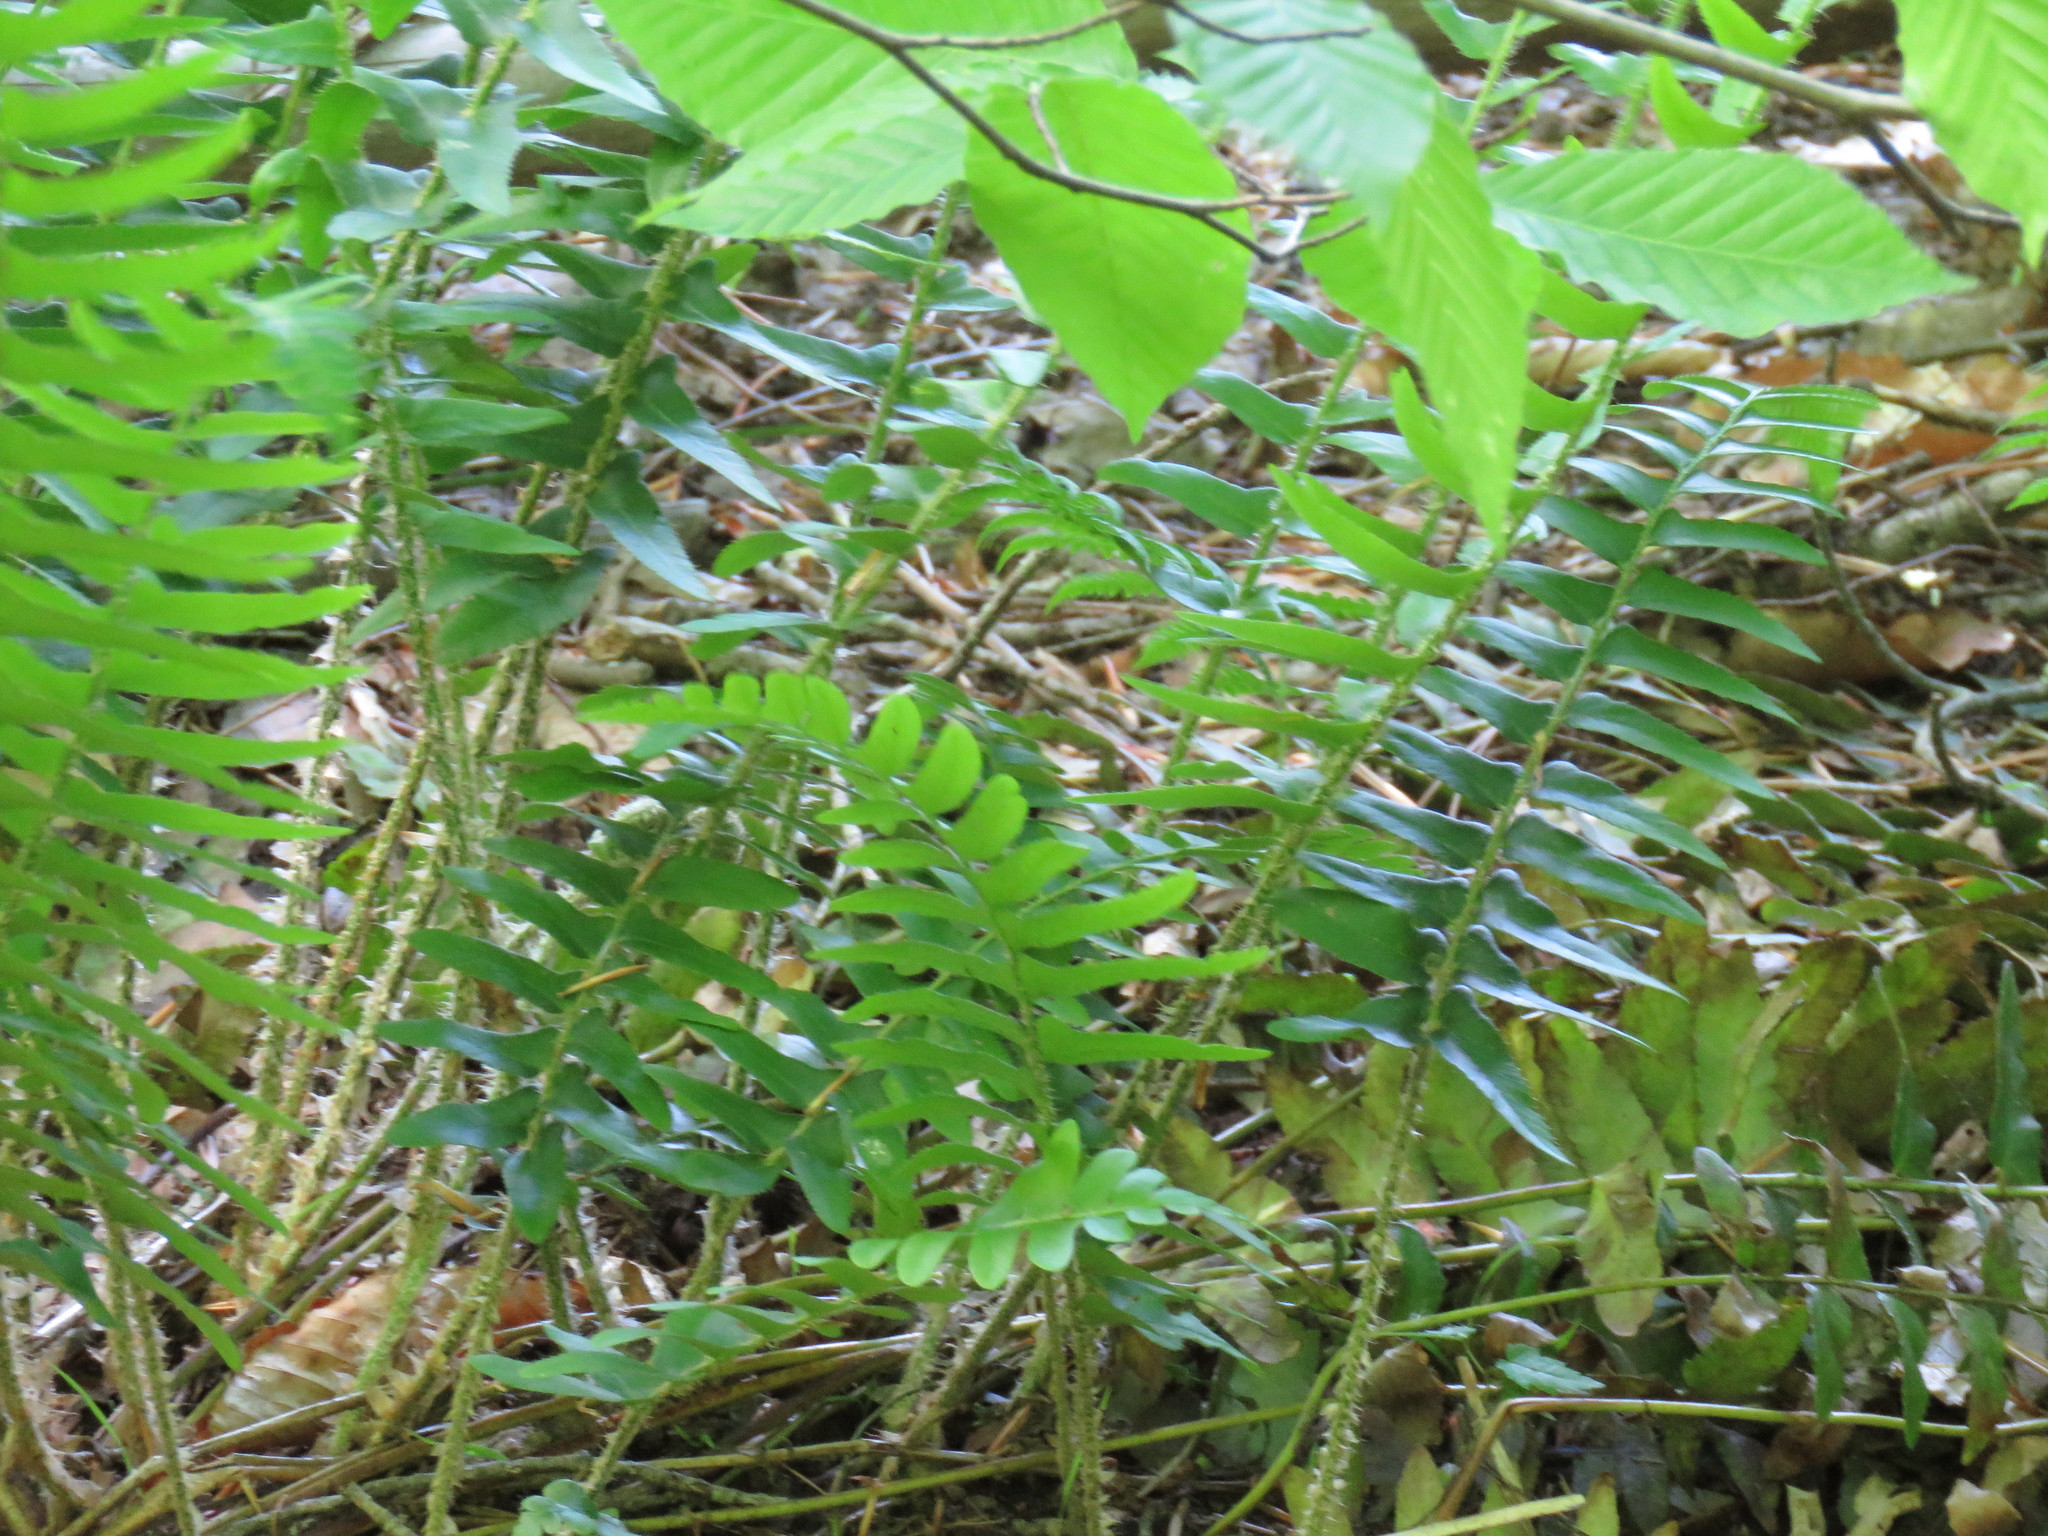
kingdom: Plantae
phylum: Tracheophyta
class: Polypodiopsida
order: Polypodiales
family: Dryopteridaceae
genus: Polystichum
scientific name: Polystichum acrostichoides
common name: Christmas fern
